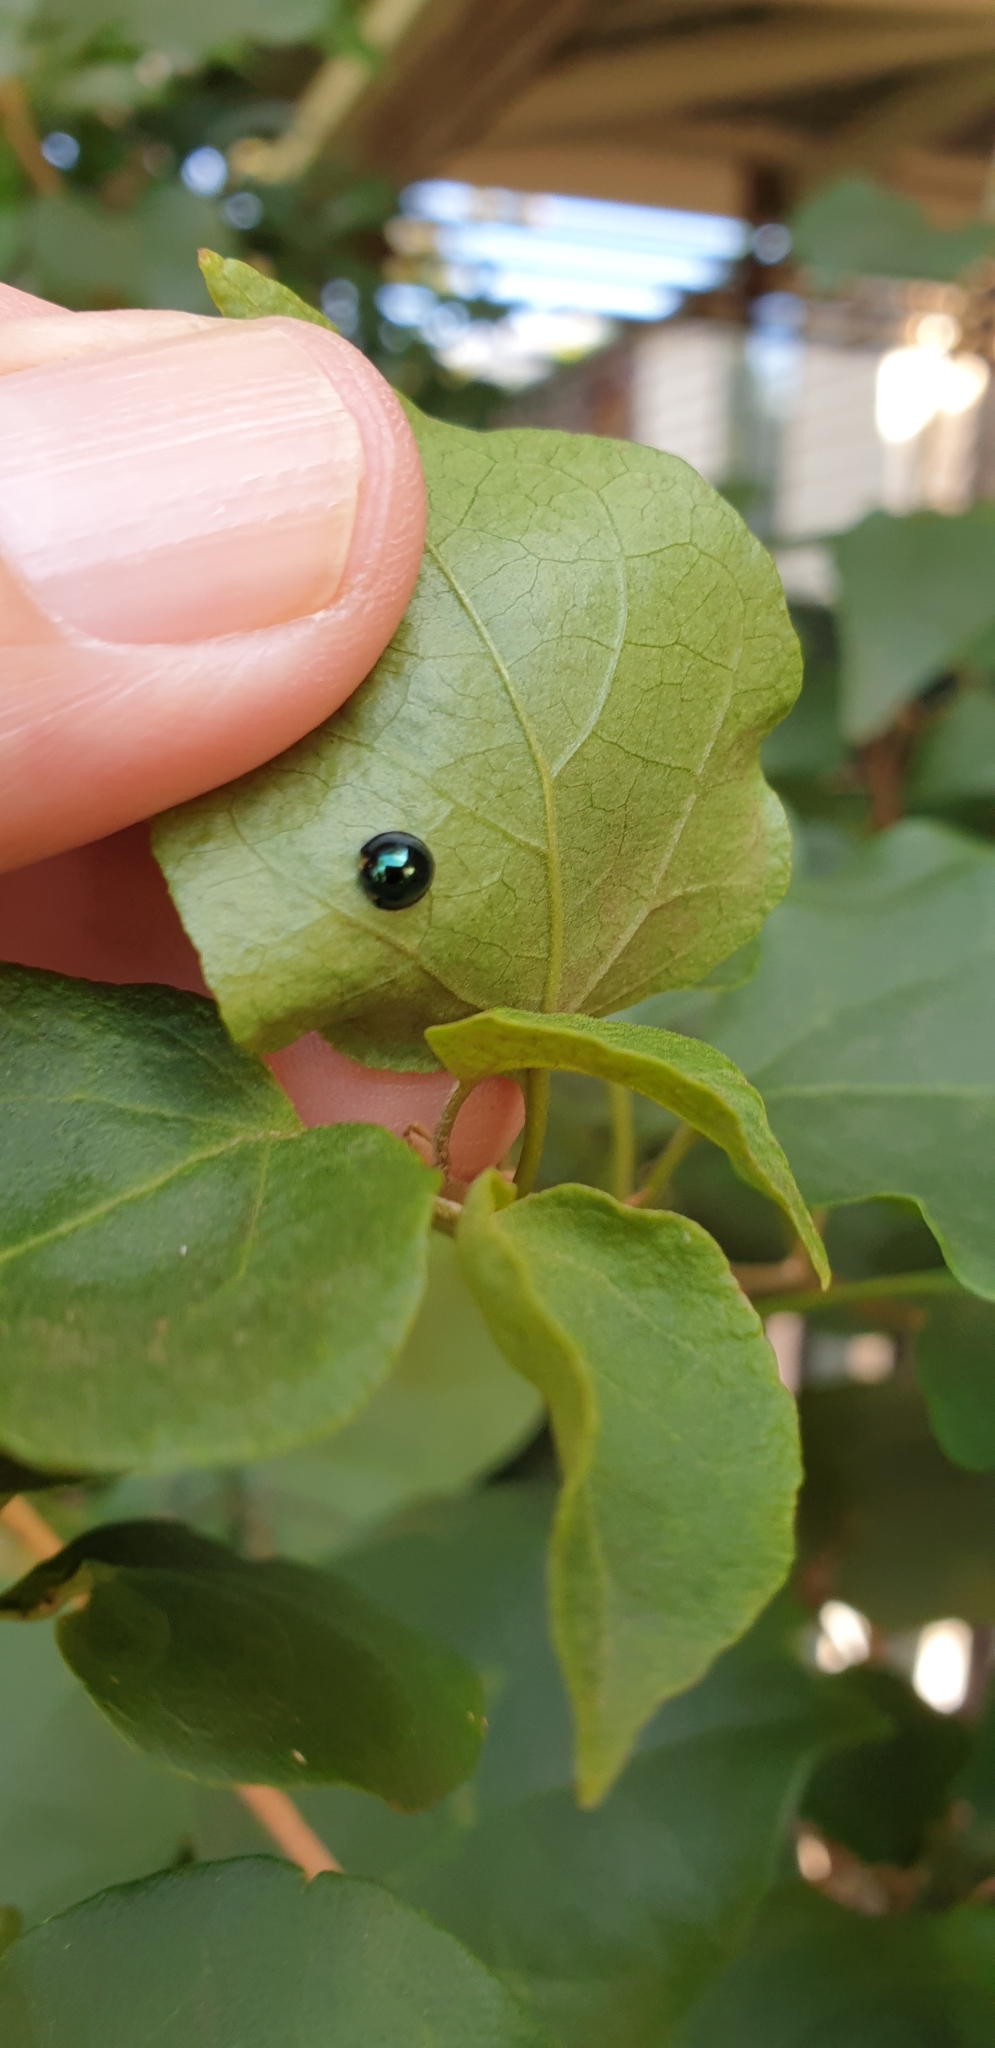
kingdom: Animalia
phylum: Arthropoda
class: Insecta
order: Coleoptera
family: Coccinellidae
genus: Halmus
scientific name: Halmus chalybeus
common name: Steel blue ladybird beetle
